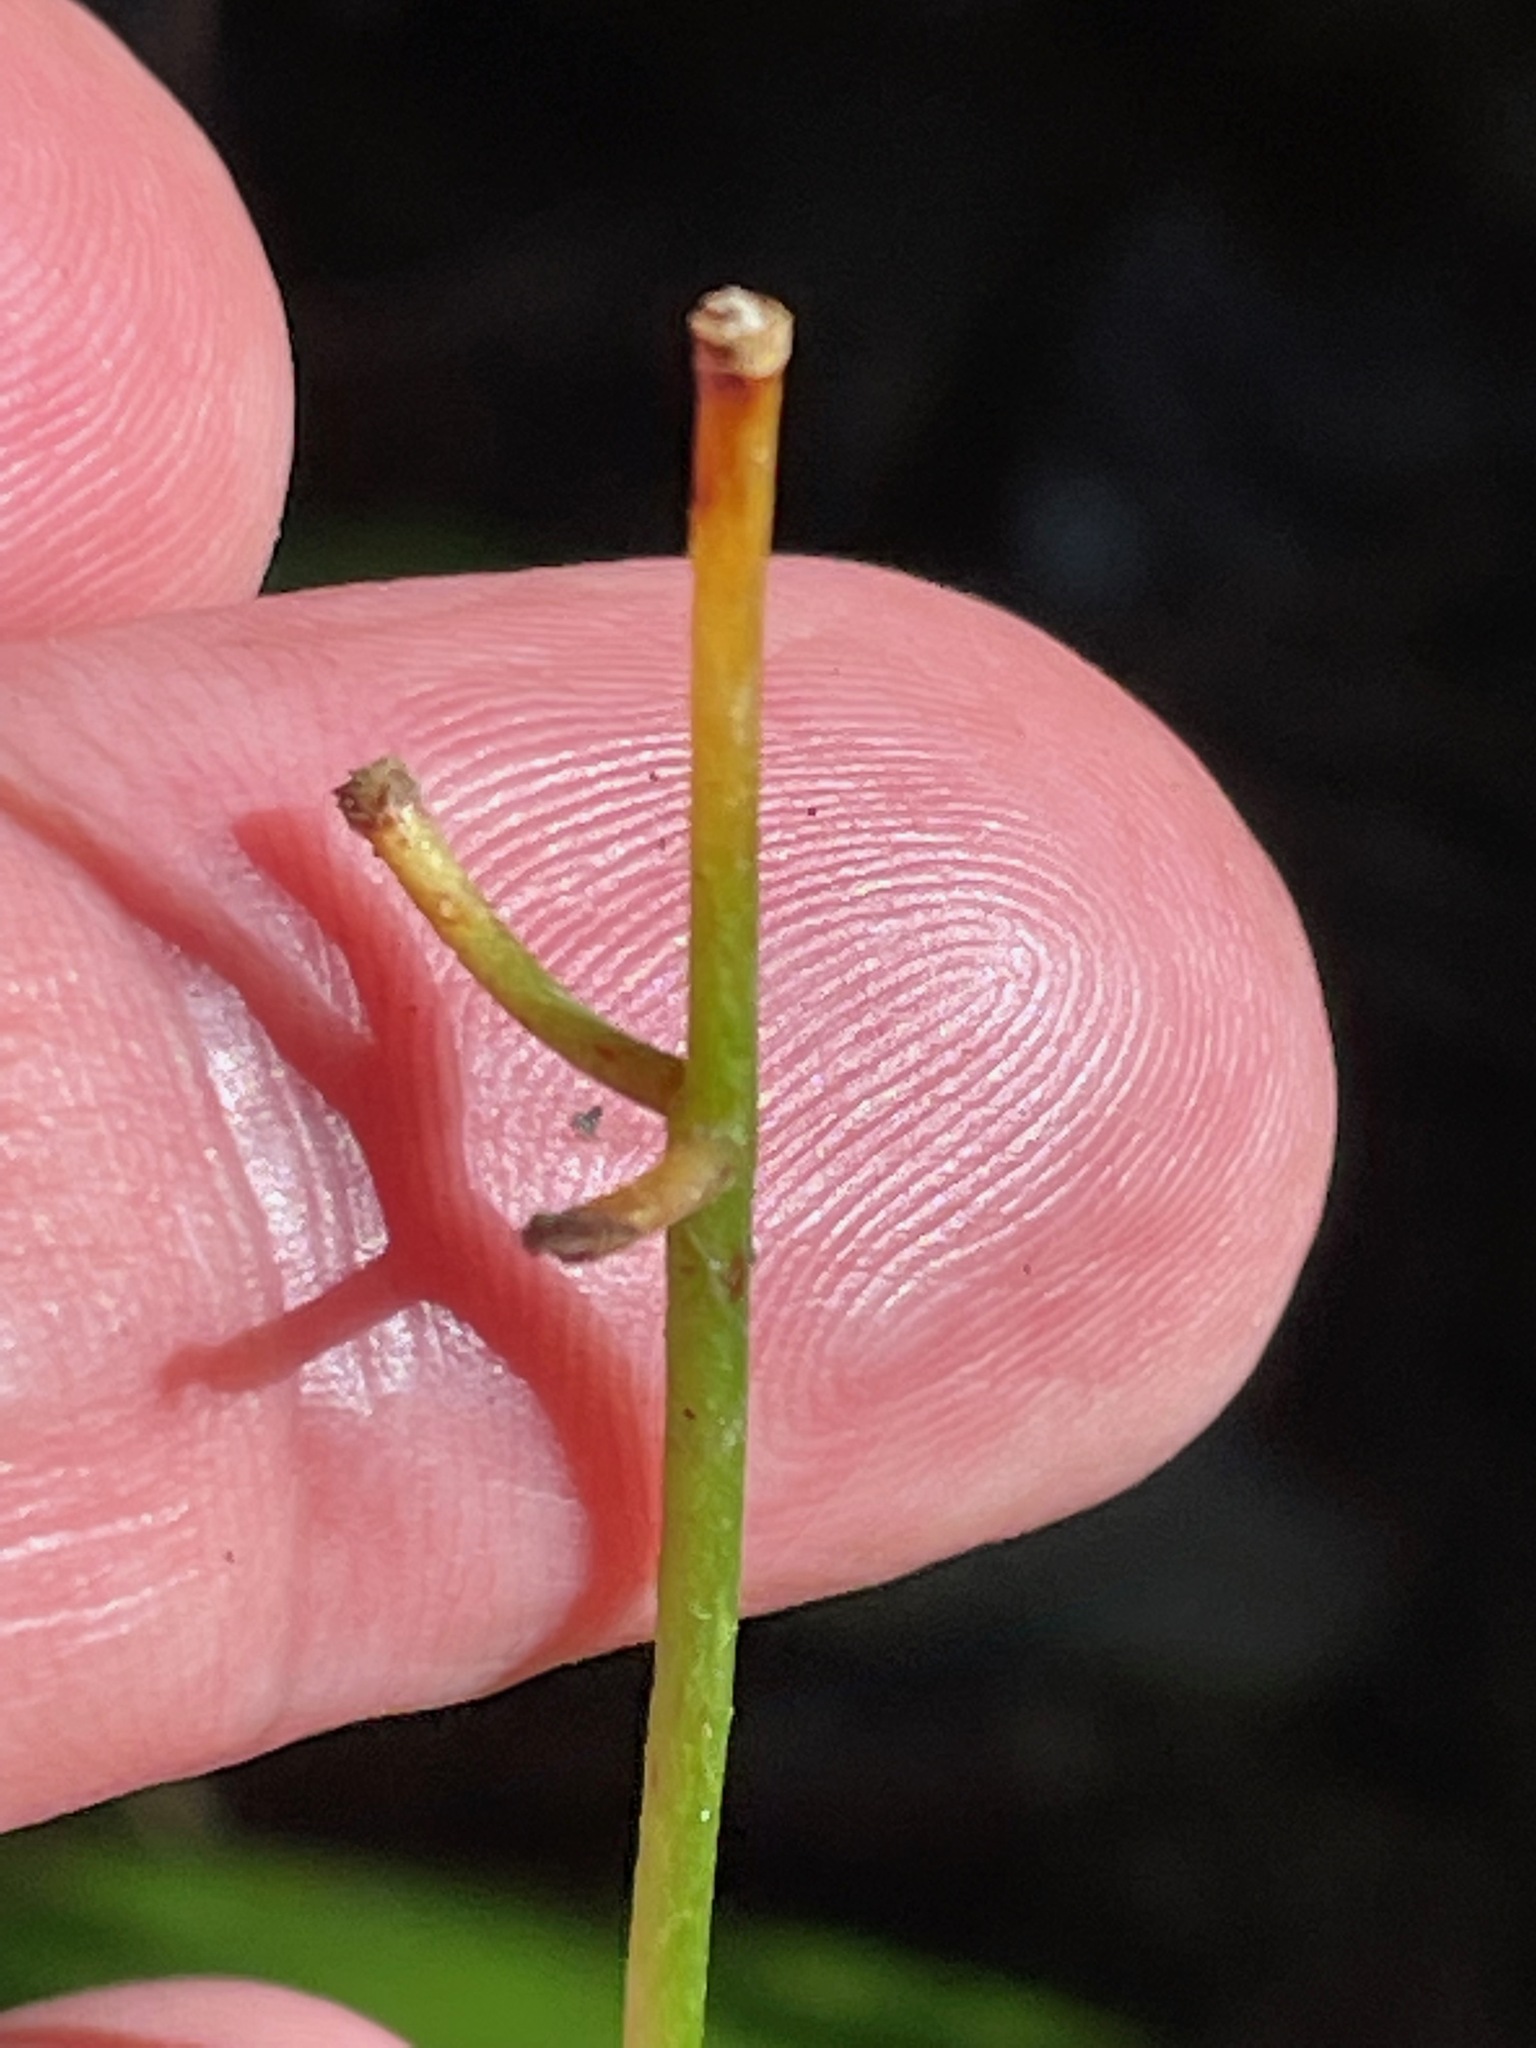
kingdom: Plantae
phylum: Tracheophyta
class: Liliopsida
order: Liliales
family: Liliaceae
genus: Clintonia
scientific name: Clintonia borealis
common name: Yellow clintonia
